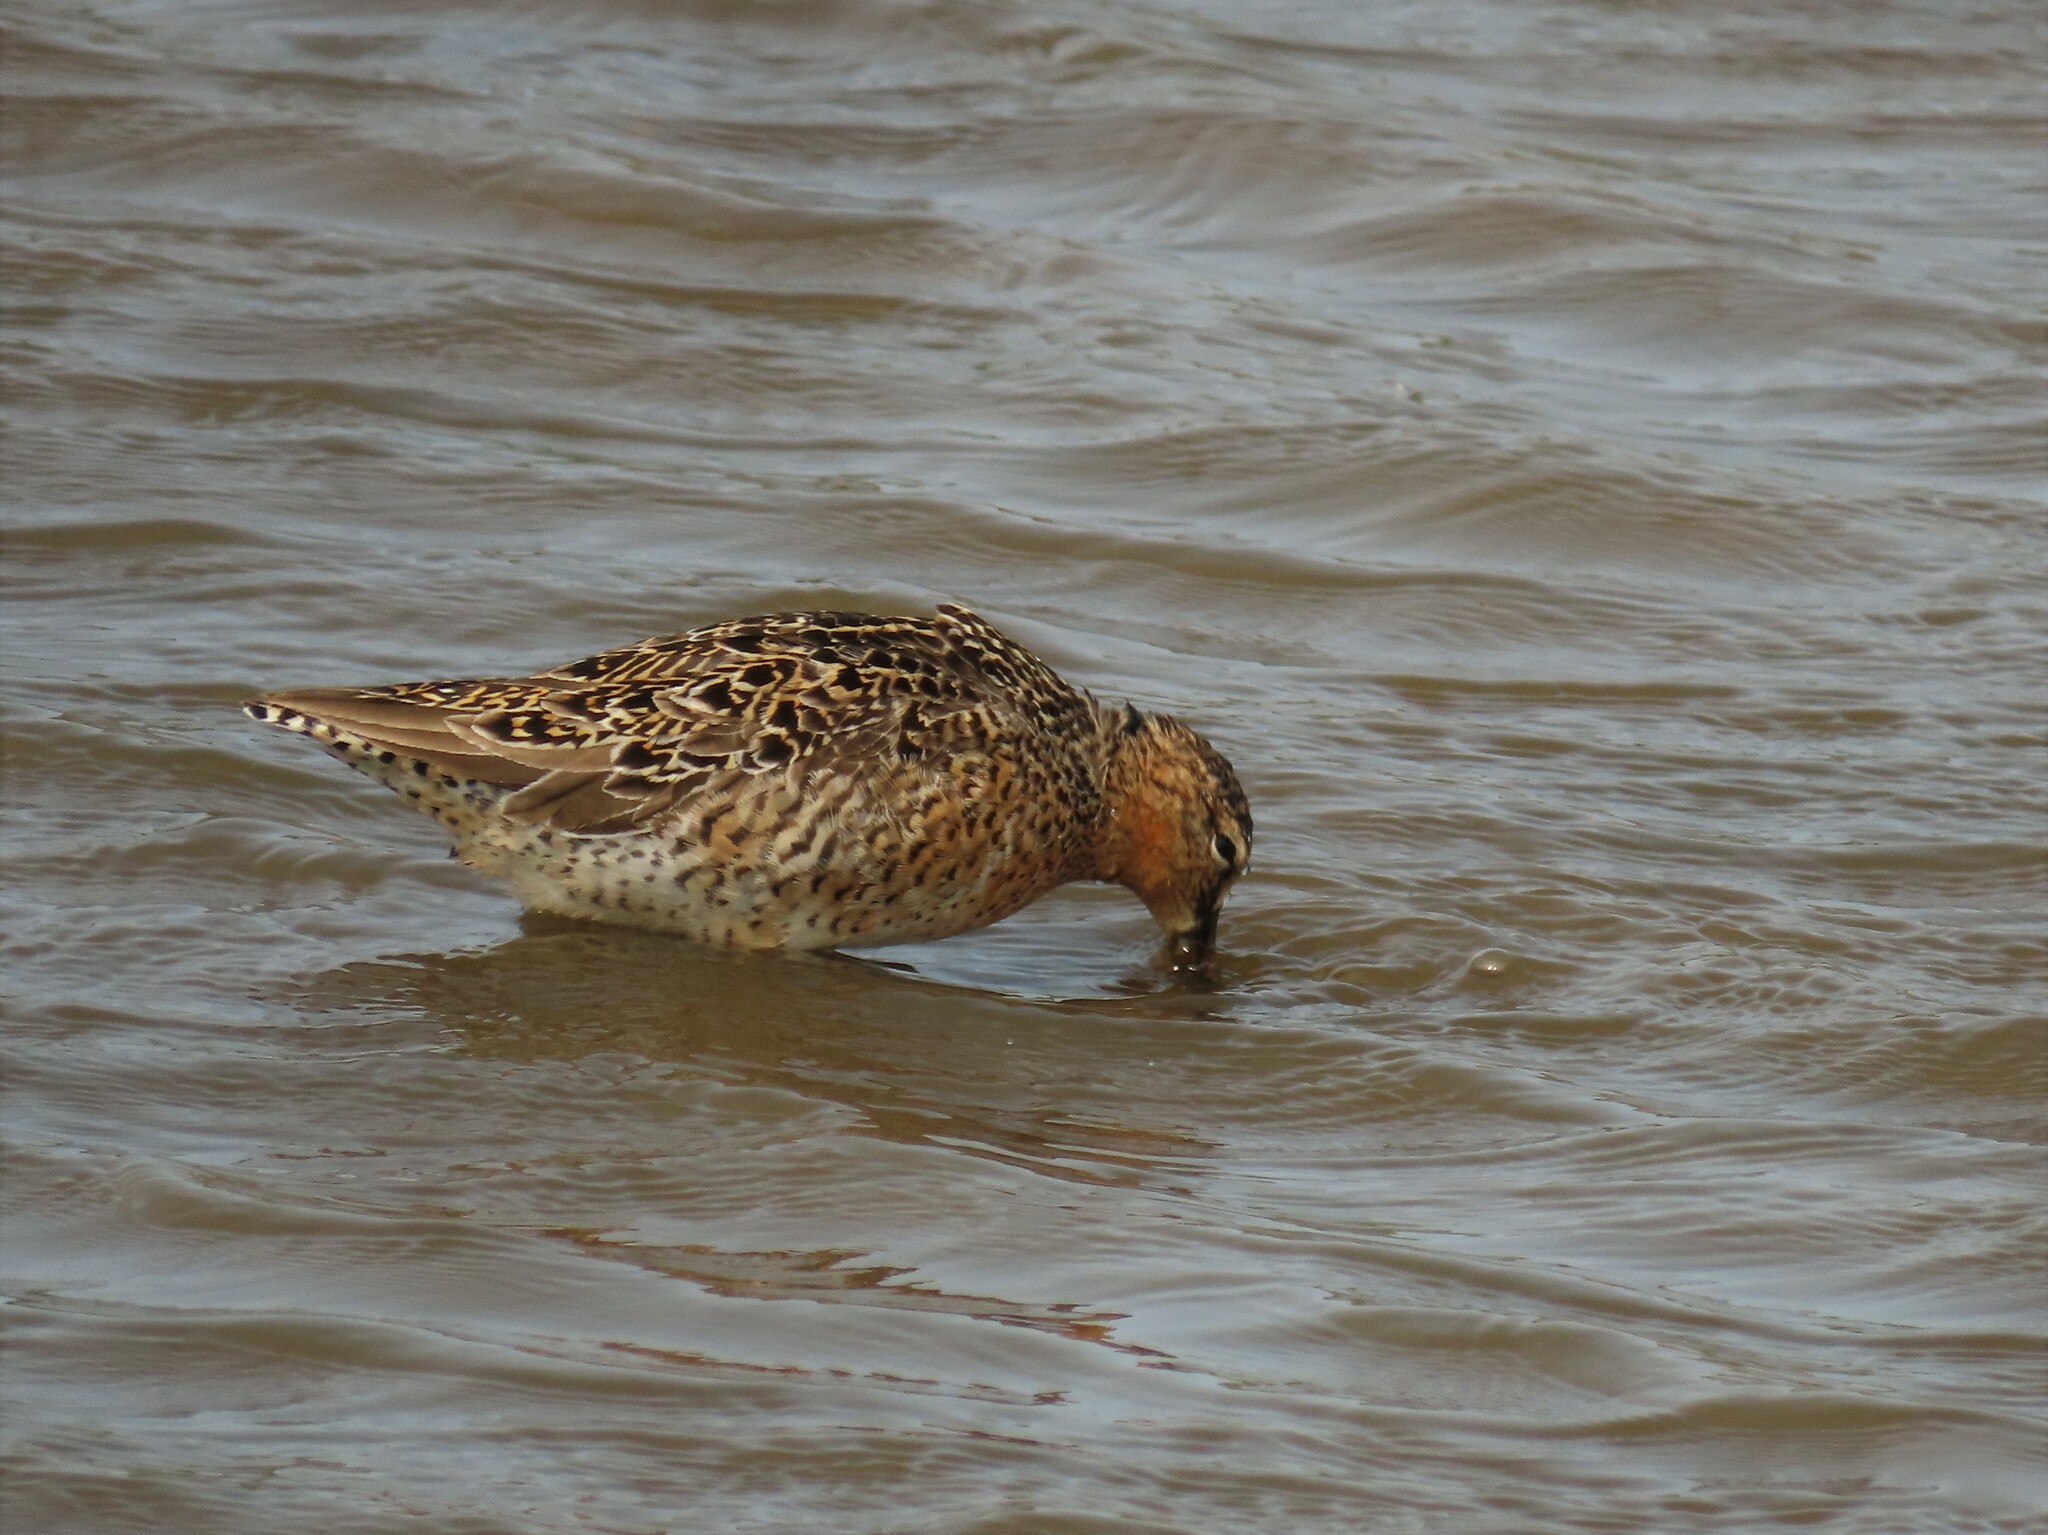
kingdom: Animalia
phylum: Chordata
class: Aves
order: Charadriiformes
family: Scolopacidae
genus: Limnodromus
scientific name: Limnodromus griseus
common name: Short-billed dowitcher
